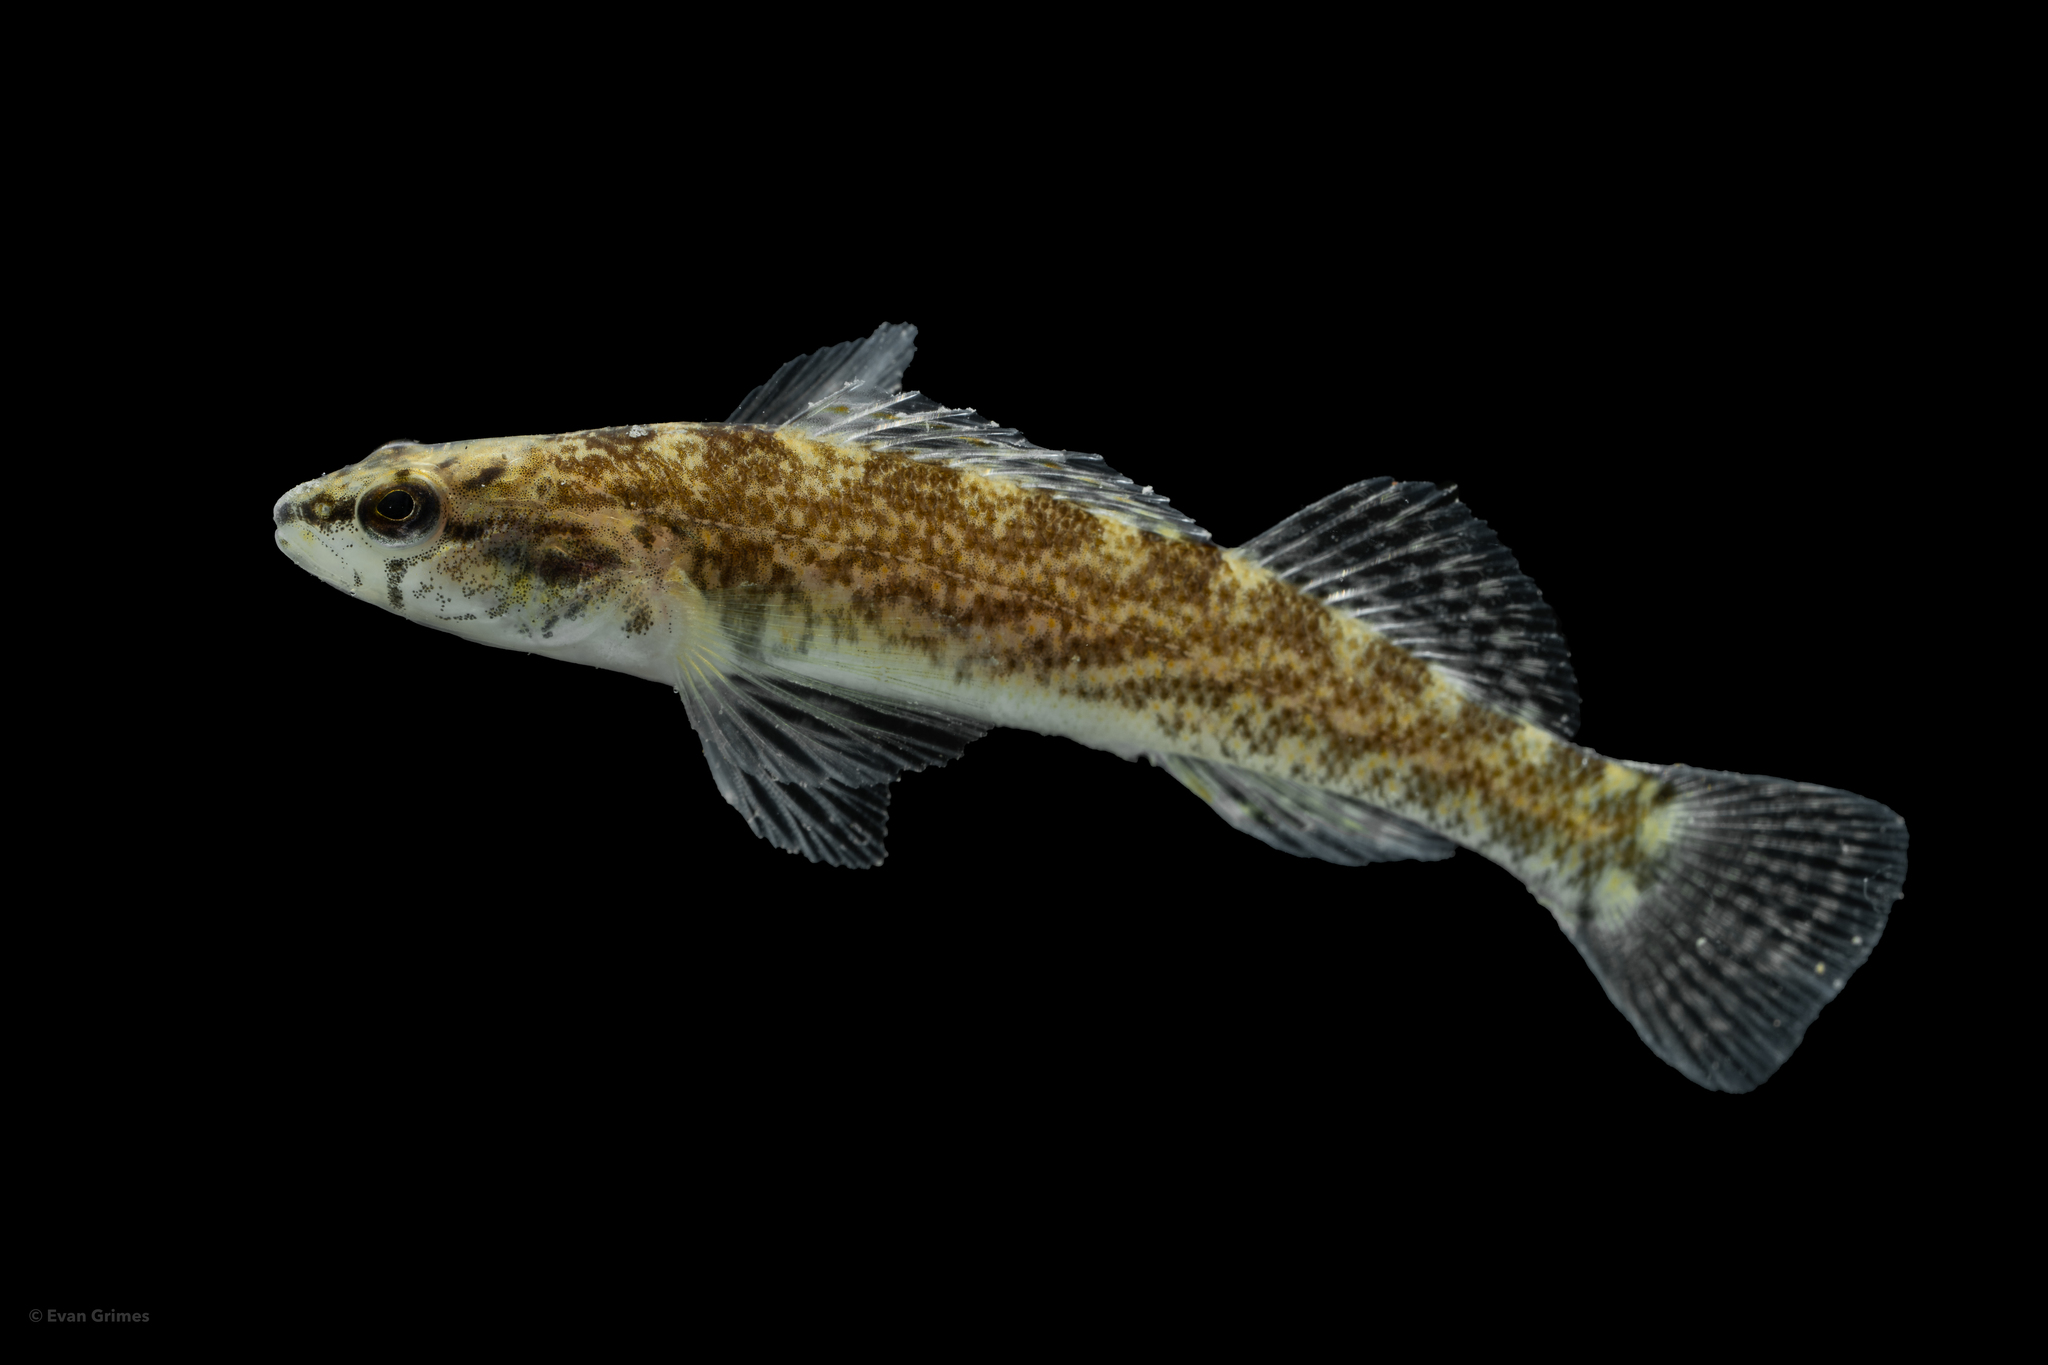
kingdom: Animalia
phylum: Chordata
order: Perciformes
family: Percidae
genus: Etheostoma
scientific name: Etheostoma caeruleum
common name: Rainbow darter
